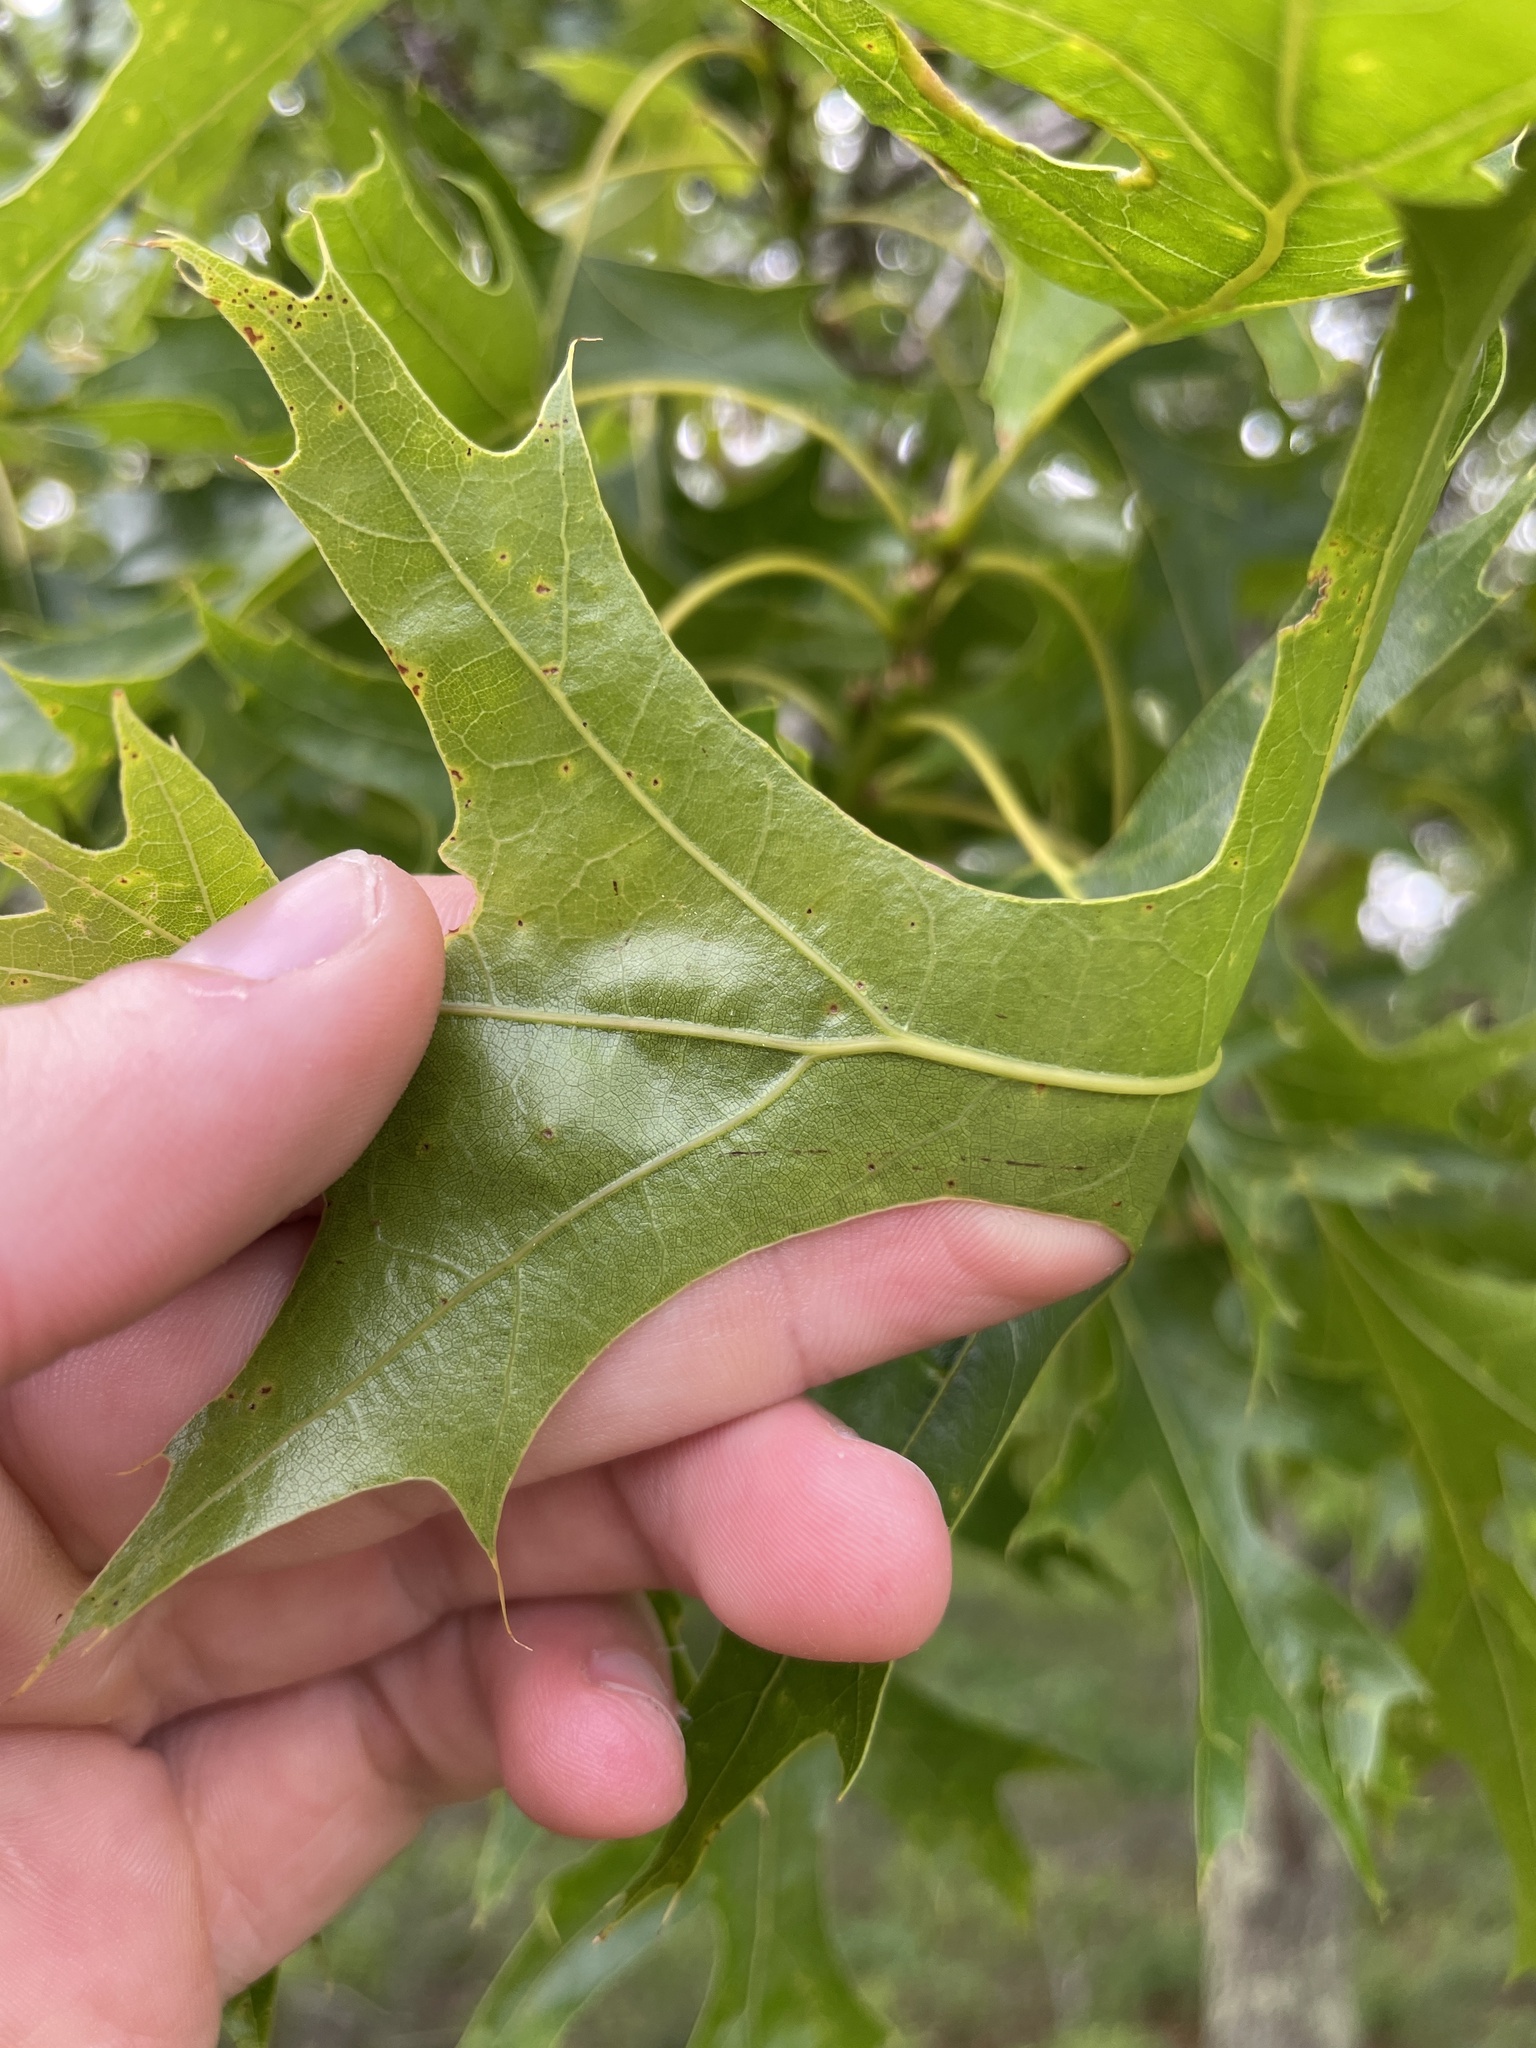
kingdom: Plantae
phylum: Tracheophyta
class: Magnoliopsida
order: Fagales
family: Fagaceae
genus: Quercus
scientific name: Quercus coccinea
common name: Scarlet oak
